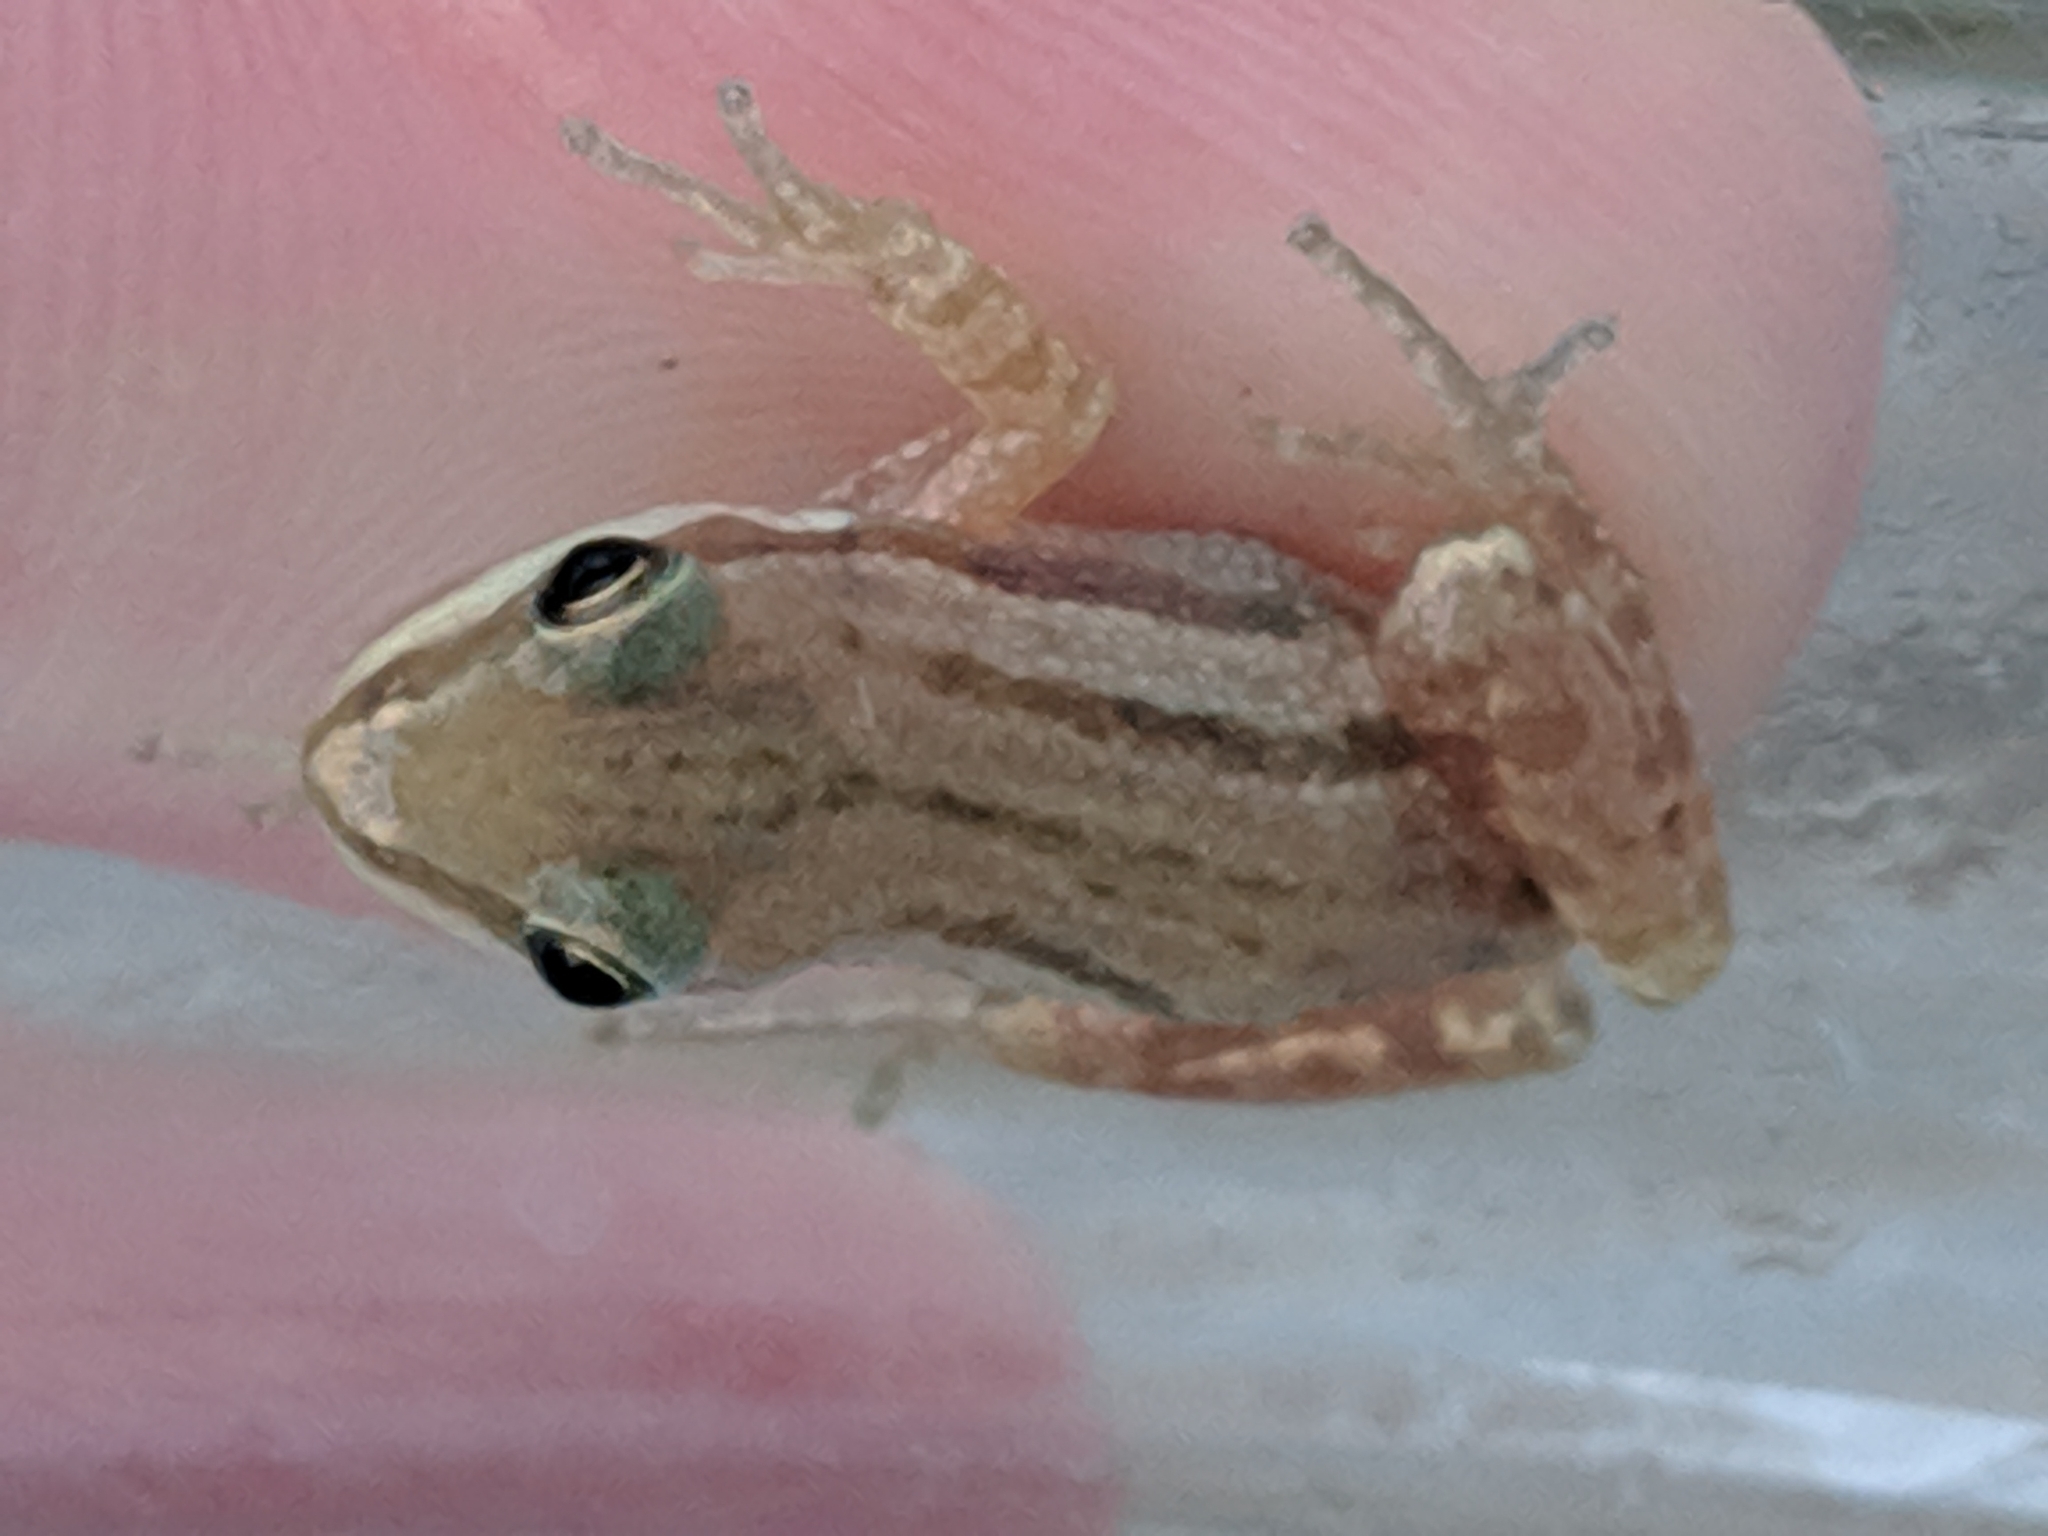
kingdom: Animalia
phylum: Chordata
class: Amphibia
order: Anura
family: Hylidae
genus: Pseudacris
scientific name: Pseudacris maculata
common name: Boreal chorus frog
